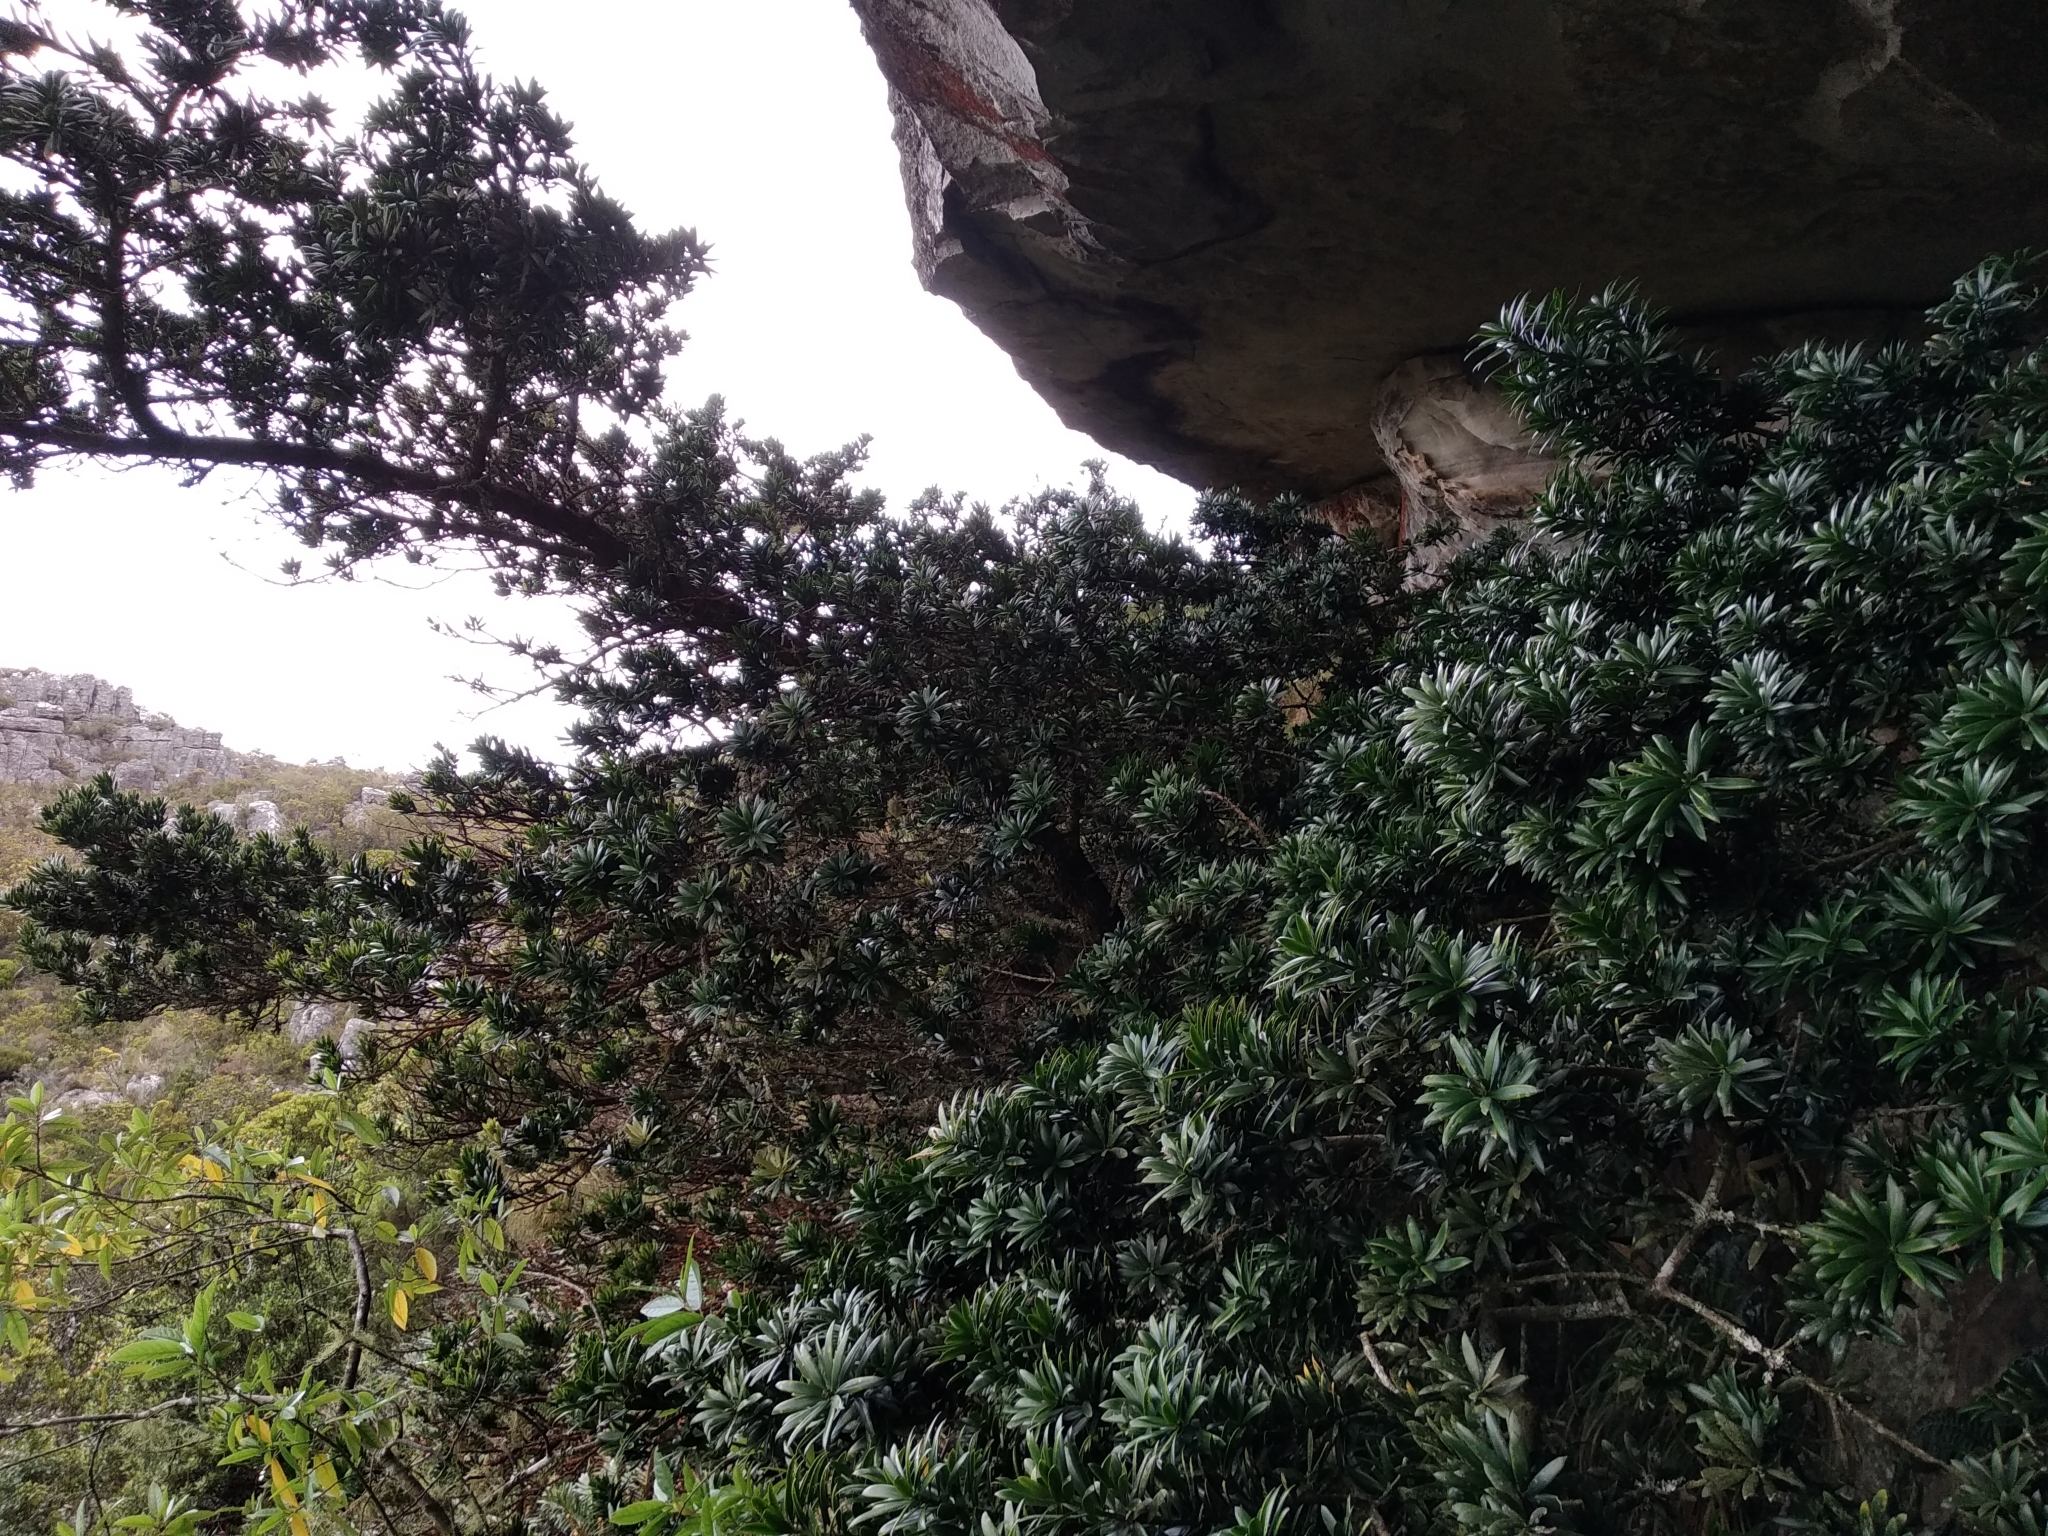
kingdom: Plantae
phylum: Tracheophyta
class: Pinopsida
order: Pinales
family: Podocarpaceae
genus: Podocarpus
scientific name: Podocarpus latifolius
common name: True yellowwood
